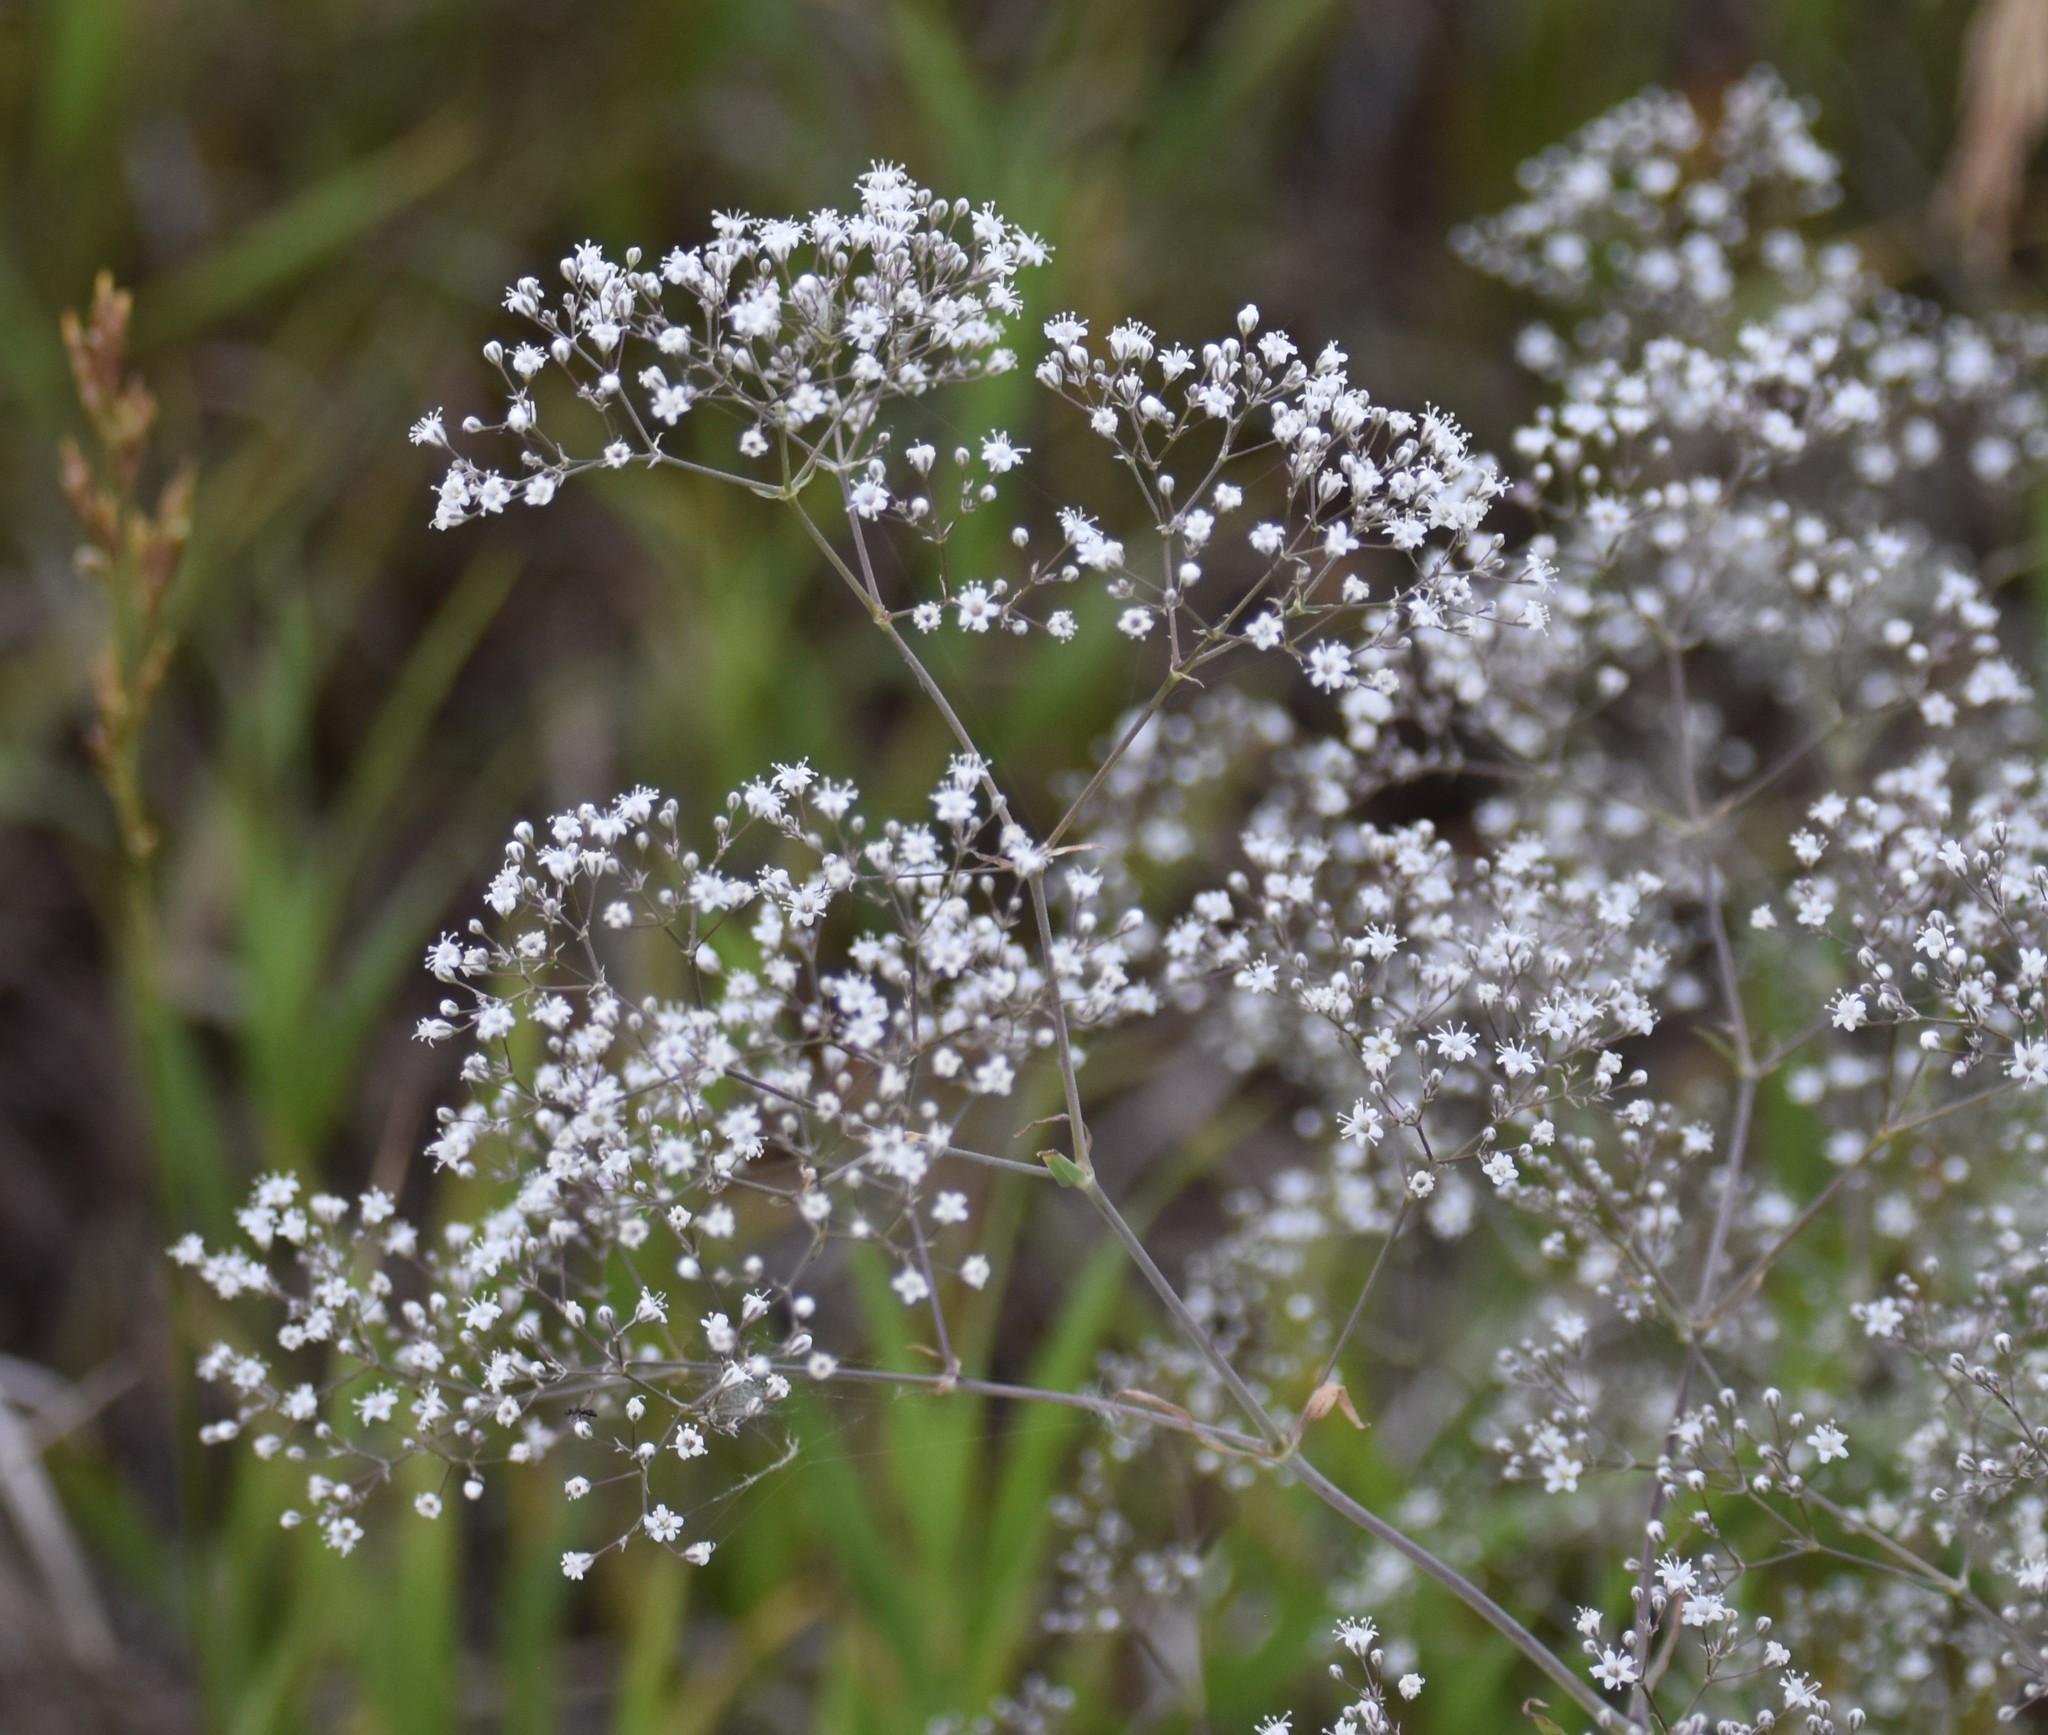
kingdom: Plantae
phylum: Tracheophyta
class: Magnoliopsida
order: Caryophyllales
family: Caryophyllaceae
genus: Gypsophila
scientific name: Gypsophila paniculata
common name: Baby's-breath
